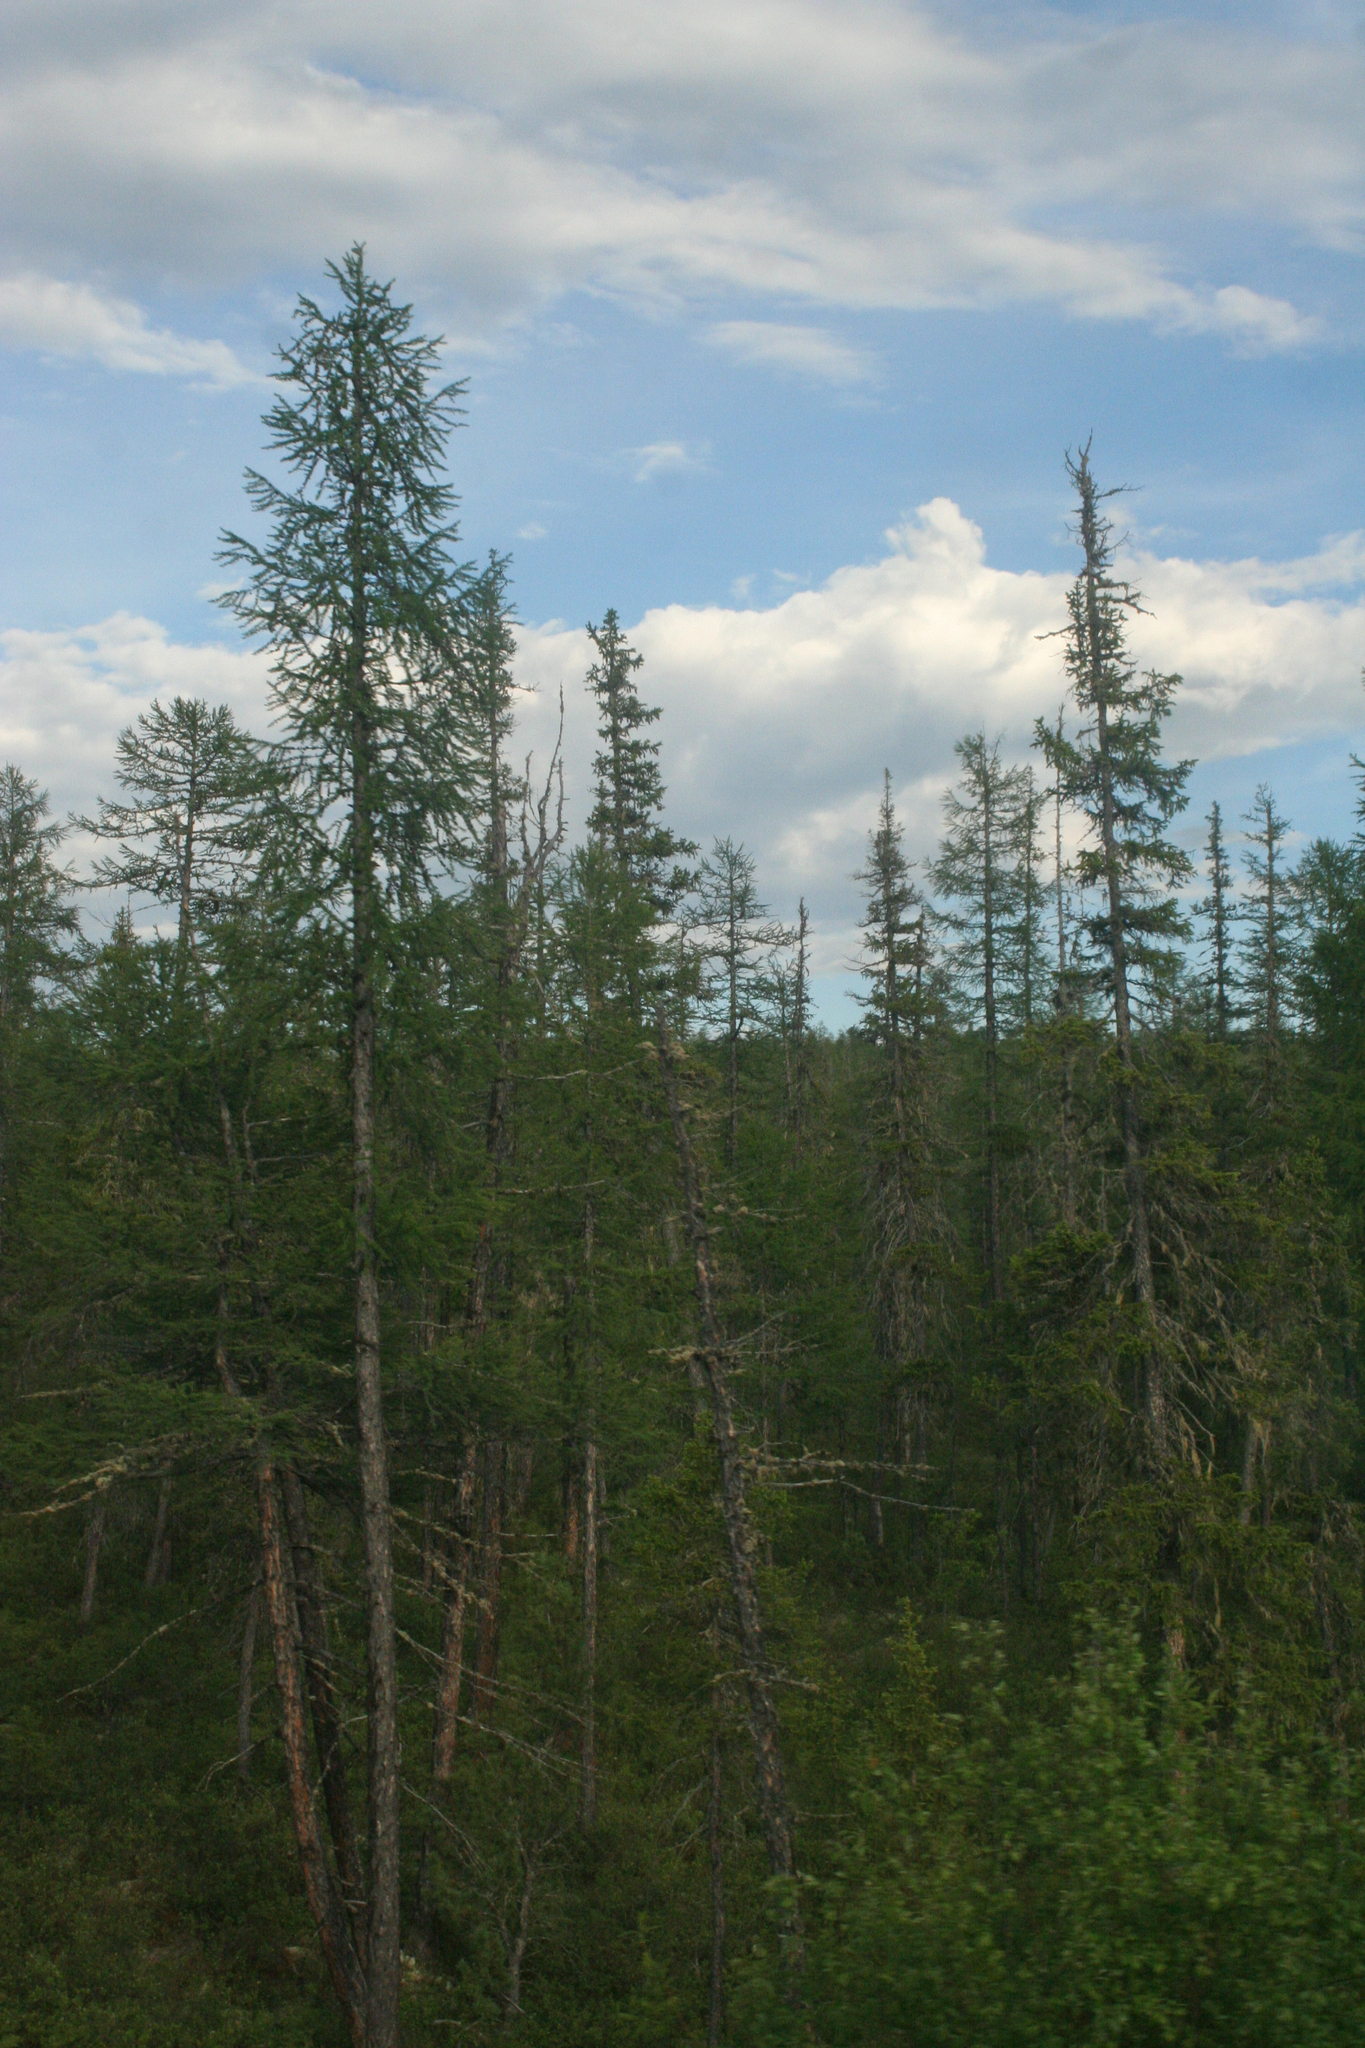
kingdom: Plantae
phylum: Tracheophyta
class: Pinopsida
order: Pinales
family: Pinaceae
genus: Larix
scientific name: Larix gmelinii
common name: Dahurian larch
